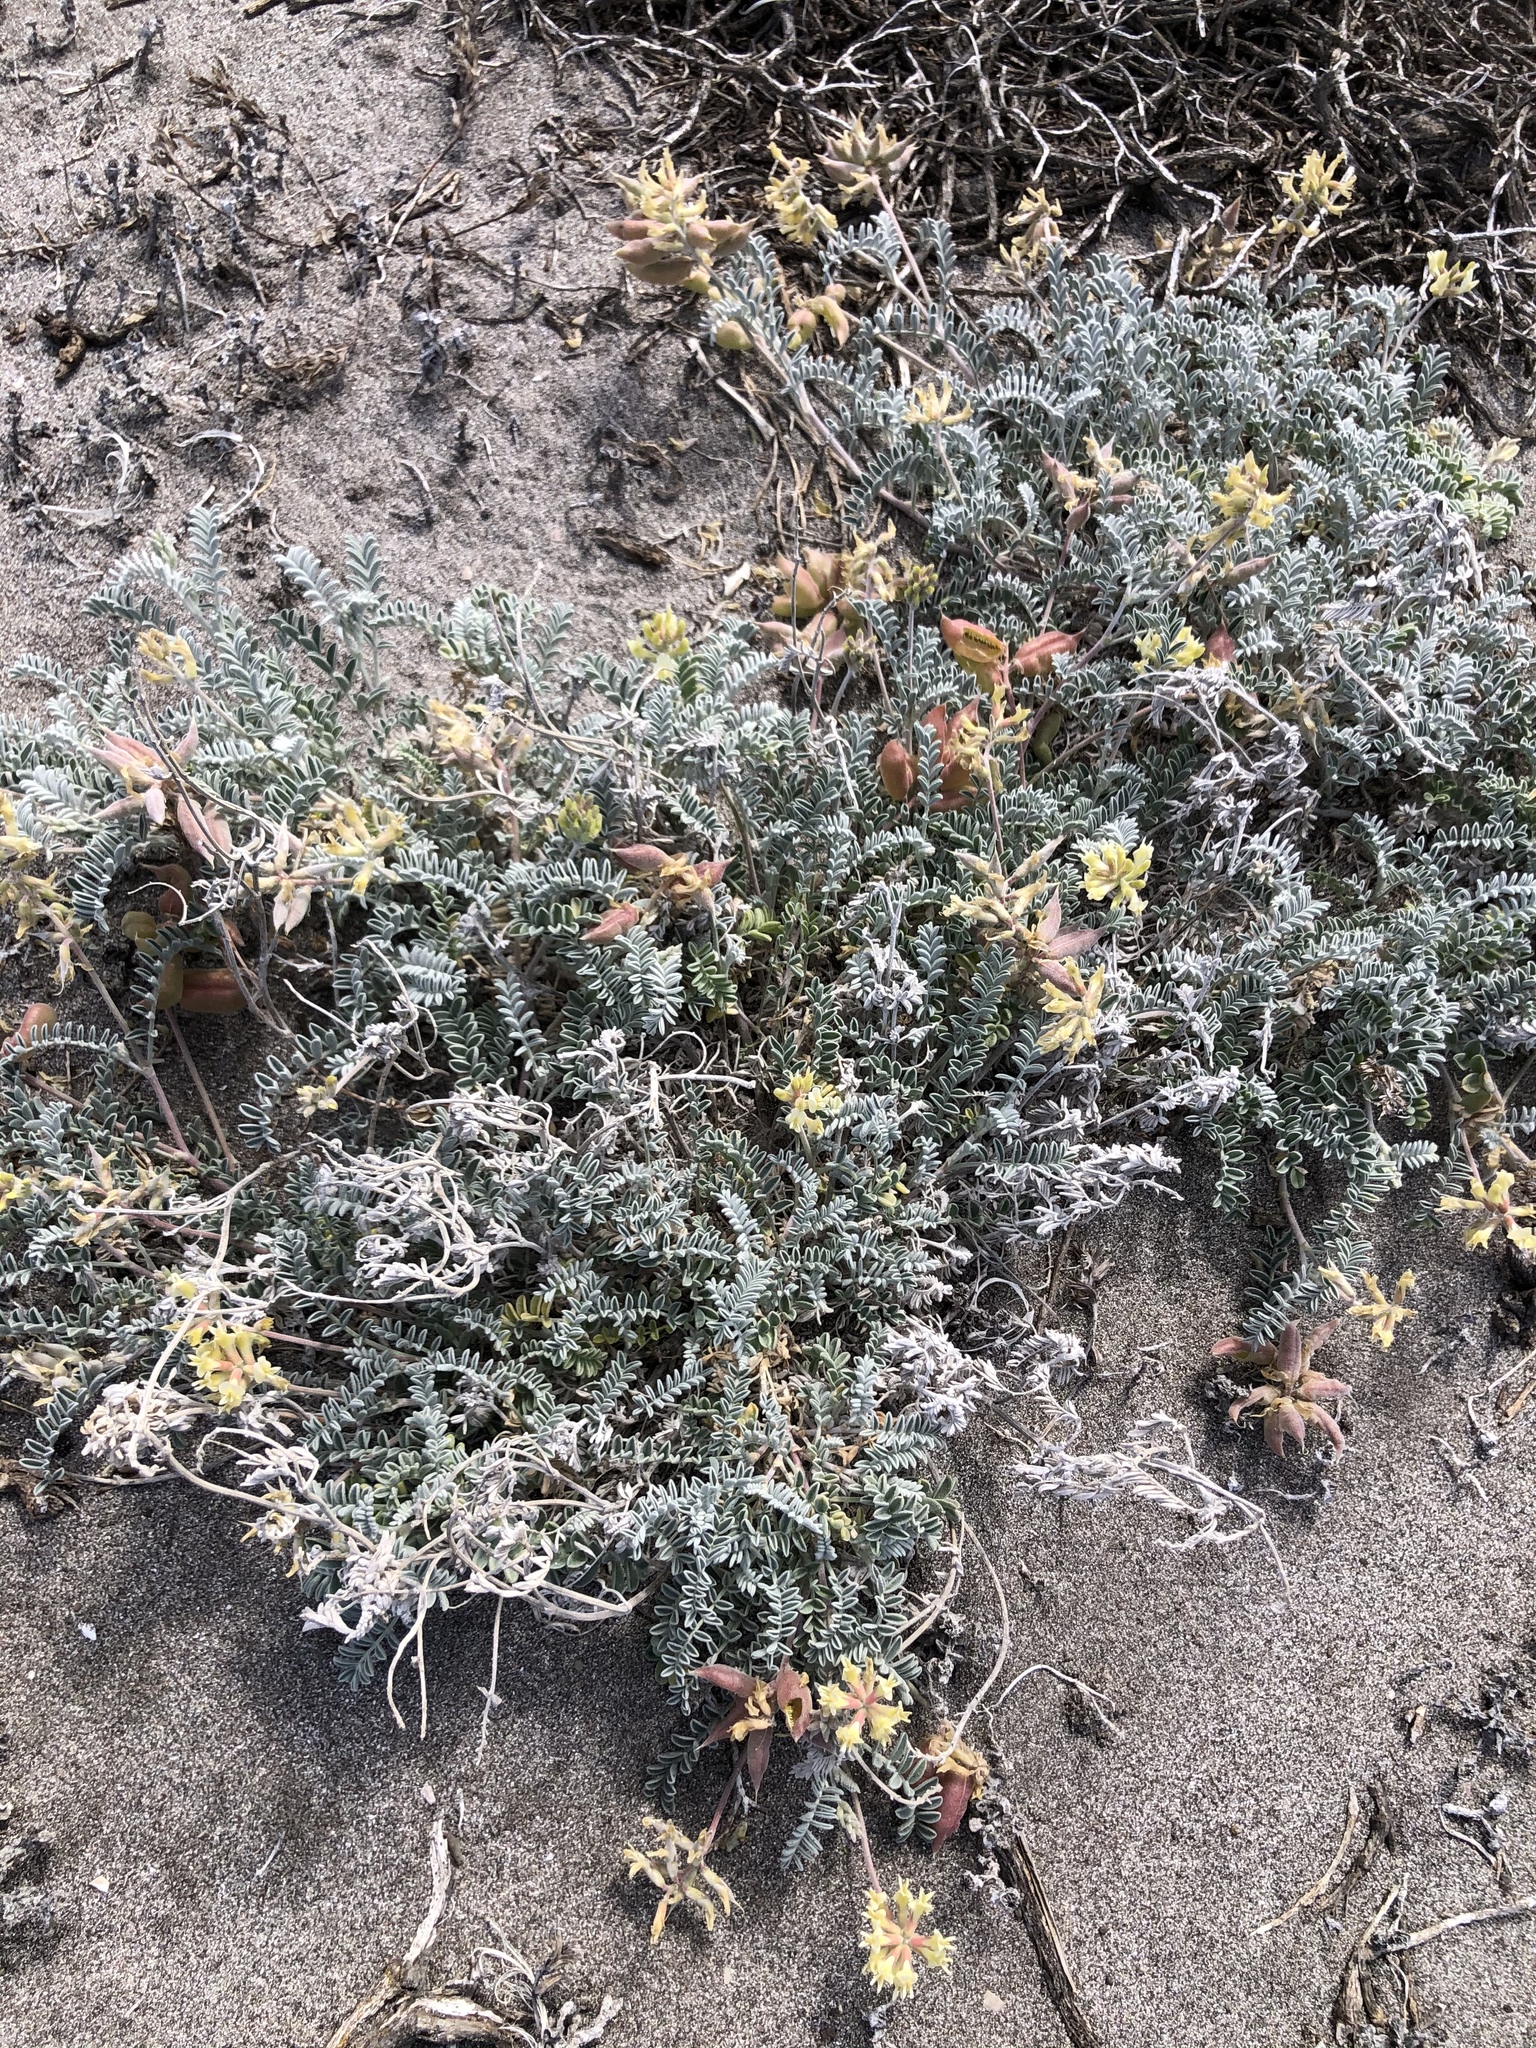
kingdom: Plantae
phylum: Tracheophyta
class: Magnoliopsida
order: Fabales
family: Fabaceae
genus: Astragalus
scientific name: Astragalus miguelensis
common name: San miguel milk-vetch
